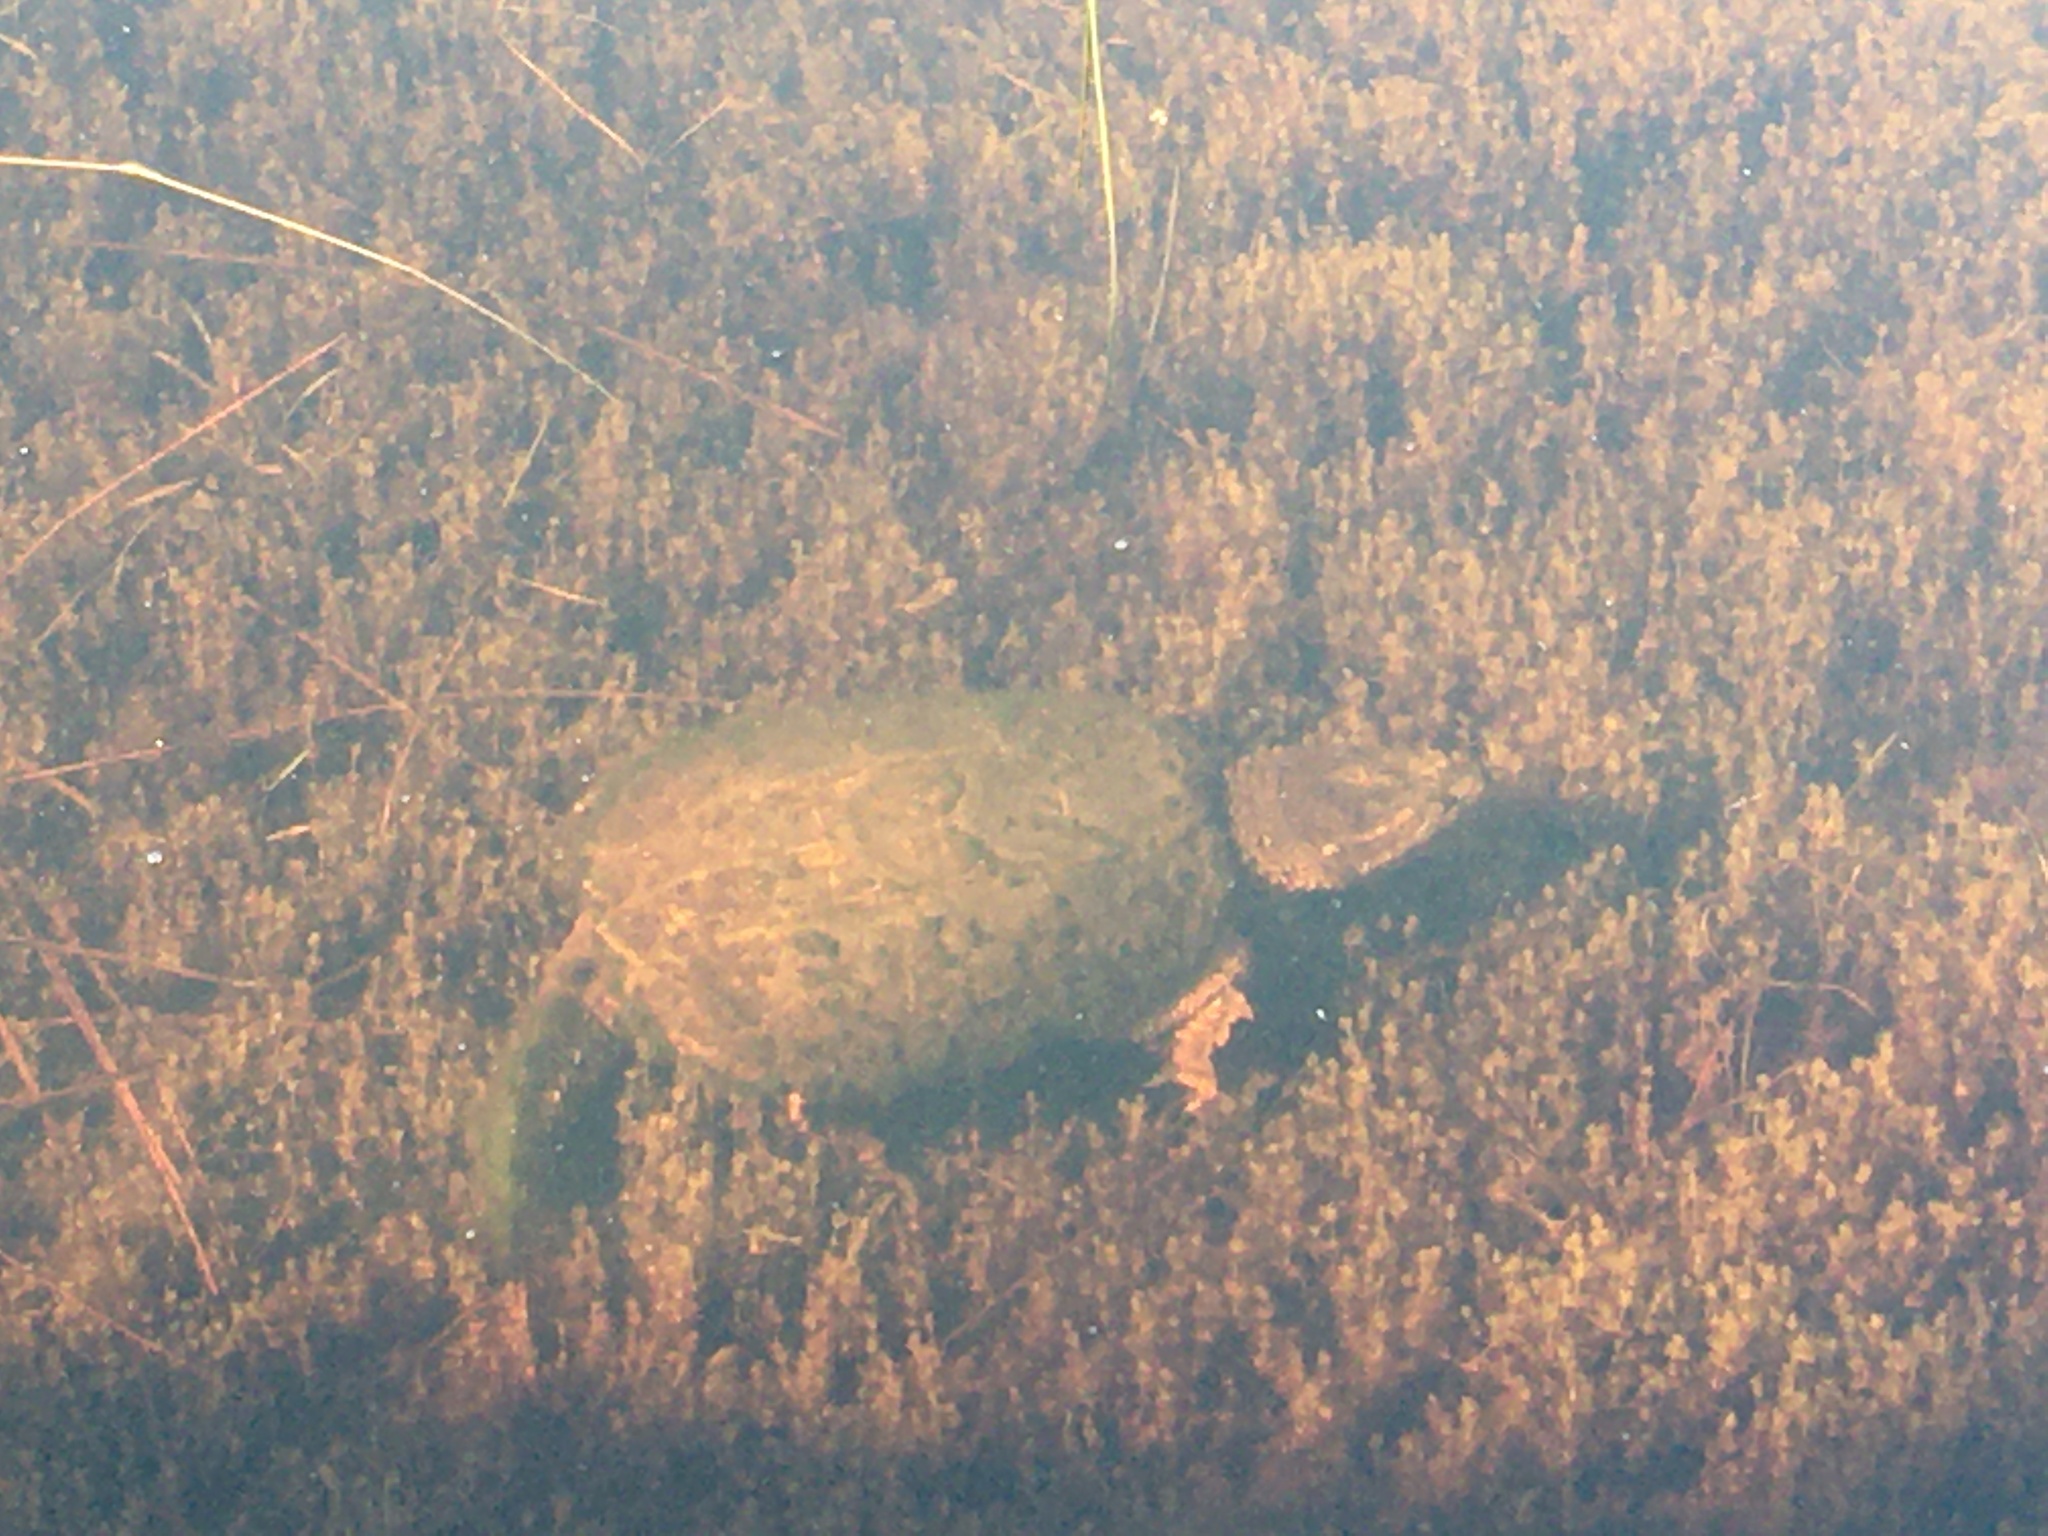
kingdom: Animalia
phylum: Chordata
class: Testudines
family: Chelydridae
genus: Chelydra
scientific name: Chelydra serpentina
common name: Common snapping turtle
